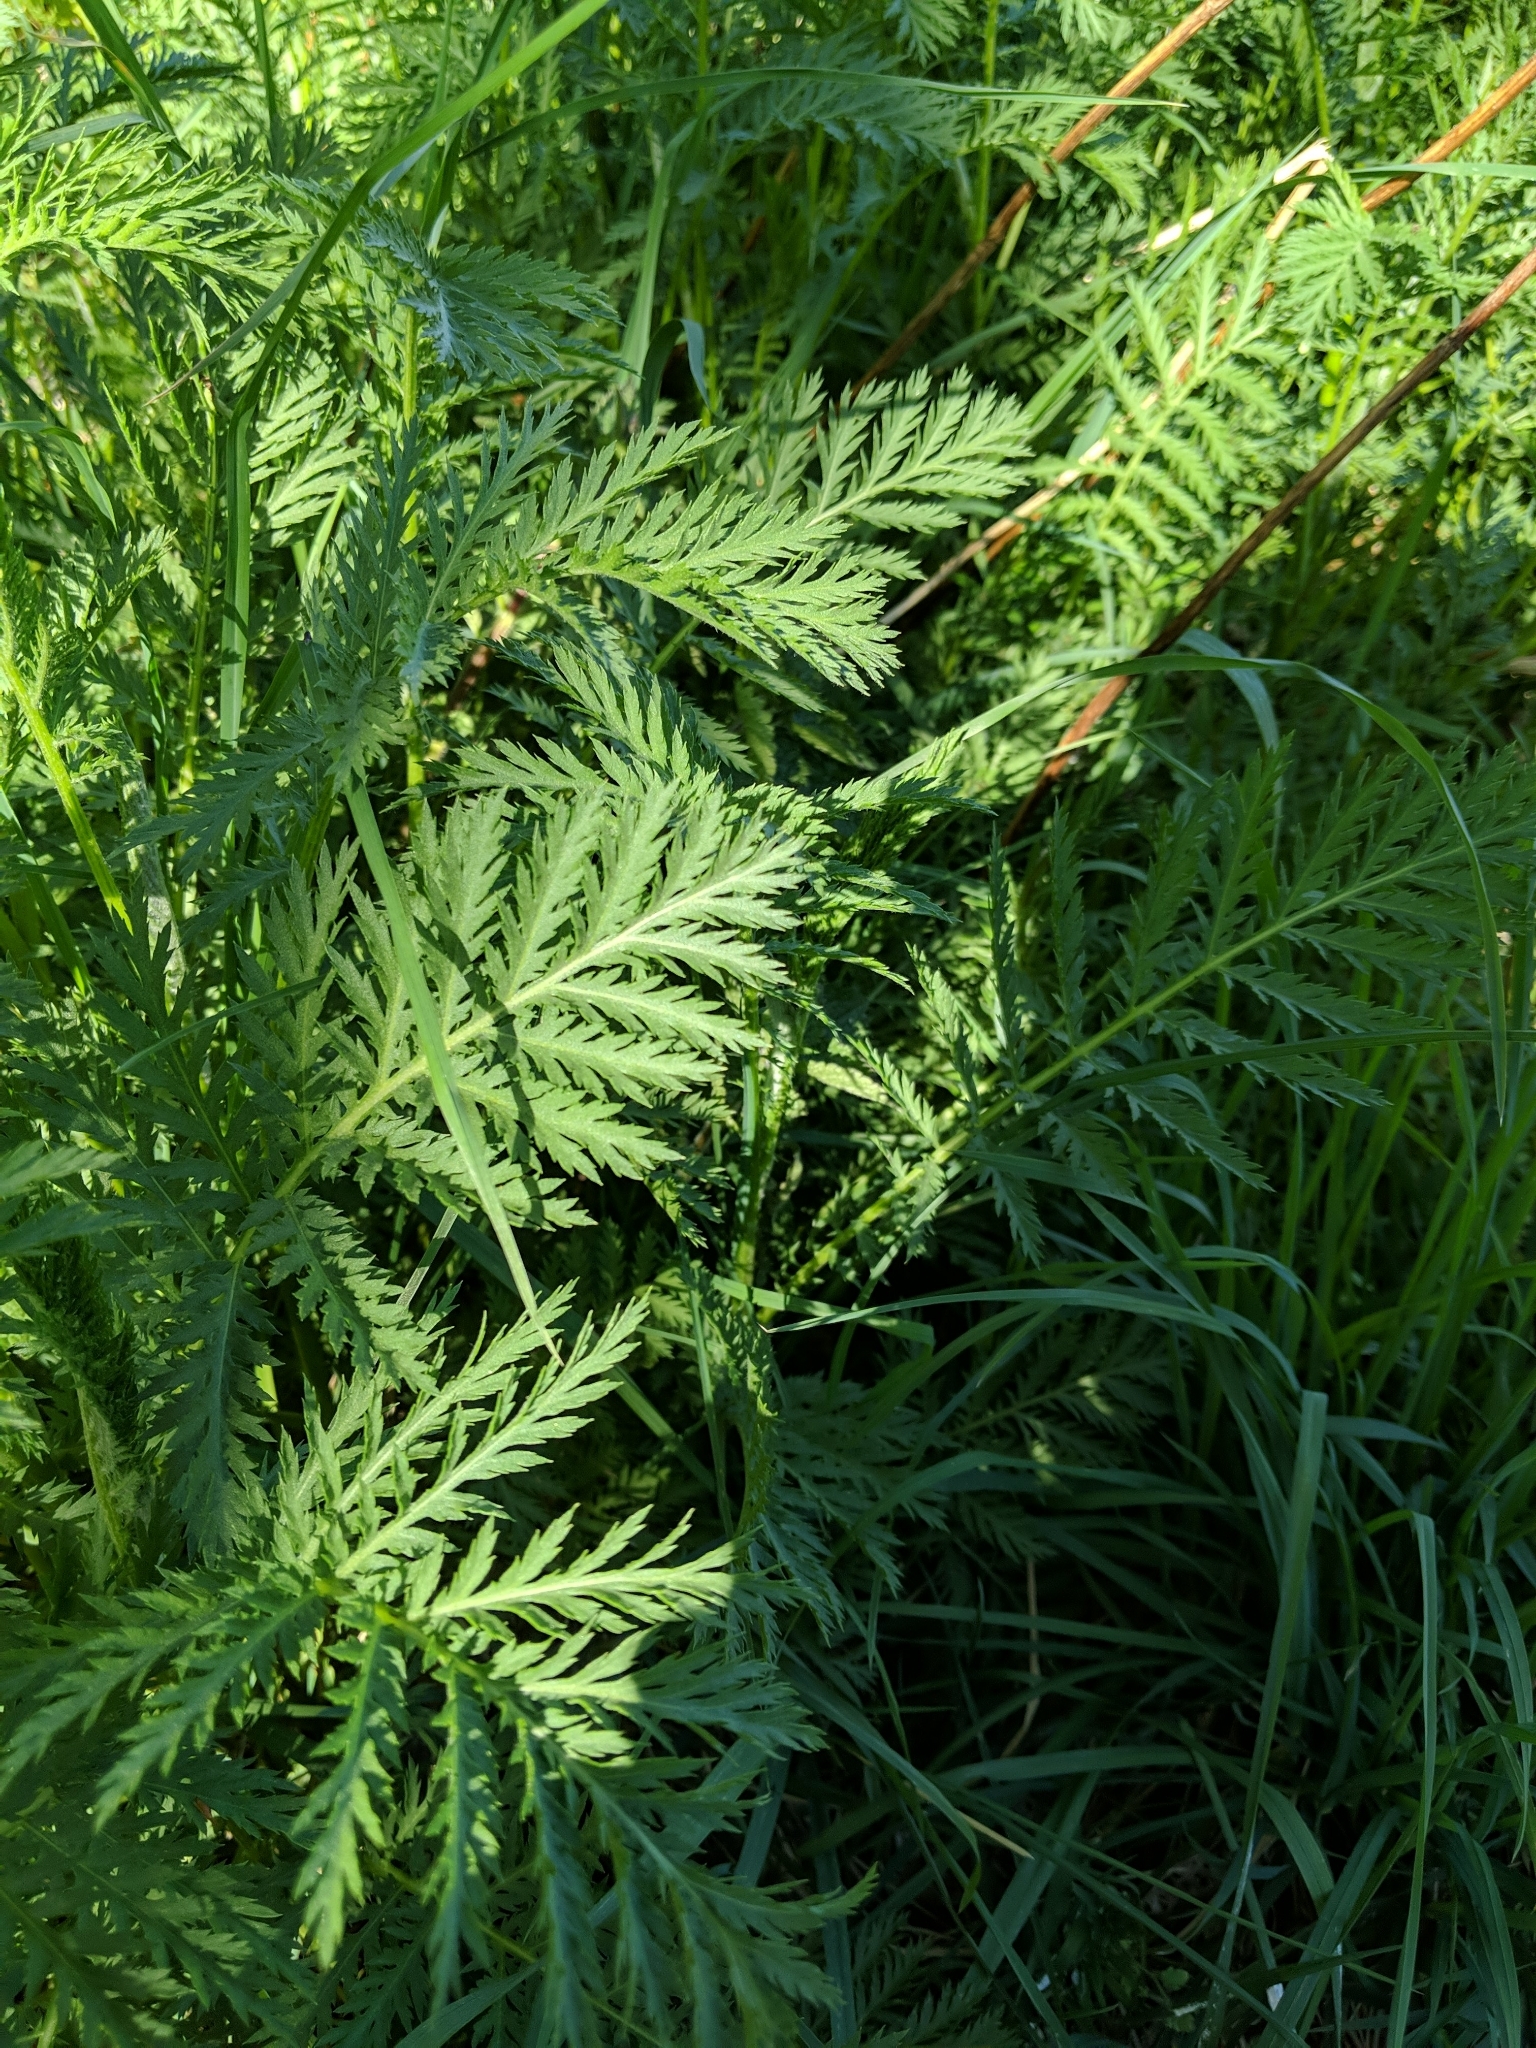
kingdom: Plantae
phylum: Tracheophyta
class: Magnoliopsida
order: Asterales
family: Asteraceae
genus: Tanacetum
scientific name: Tanacetum vulgare
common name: Common tansy
